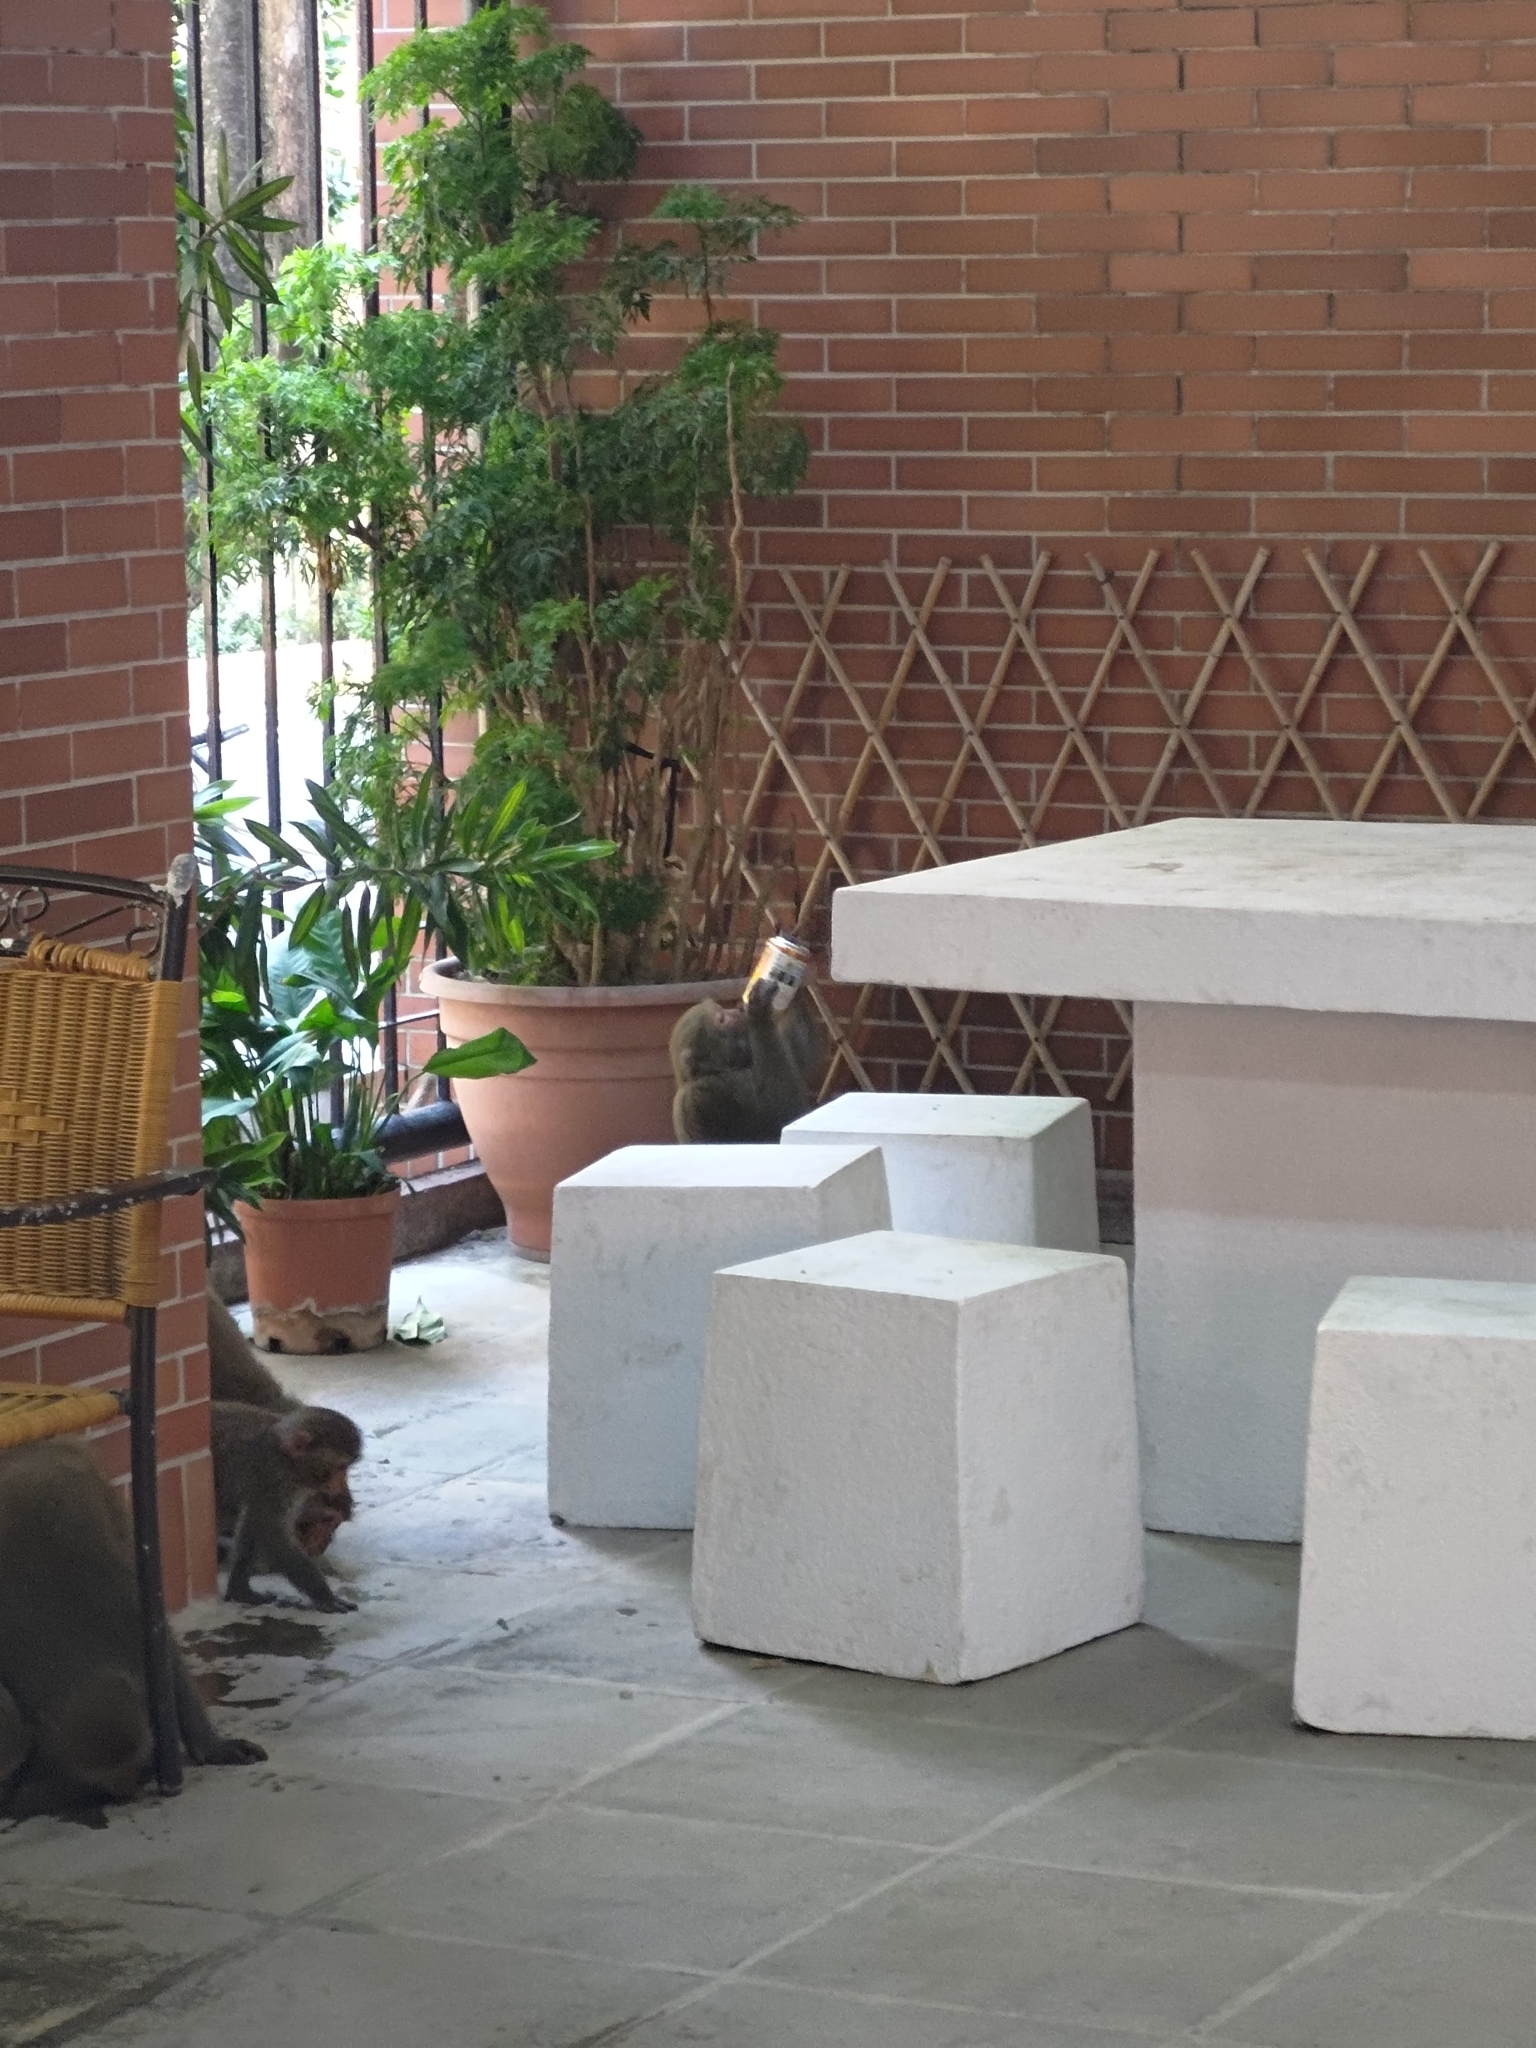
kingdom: Animalia
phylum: Chordata
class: Mammalia
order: Primates
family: Cercopithecidae
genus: Macaca
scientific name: Macaca cyclopis
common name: Formosan rock macaque
